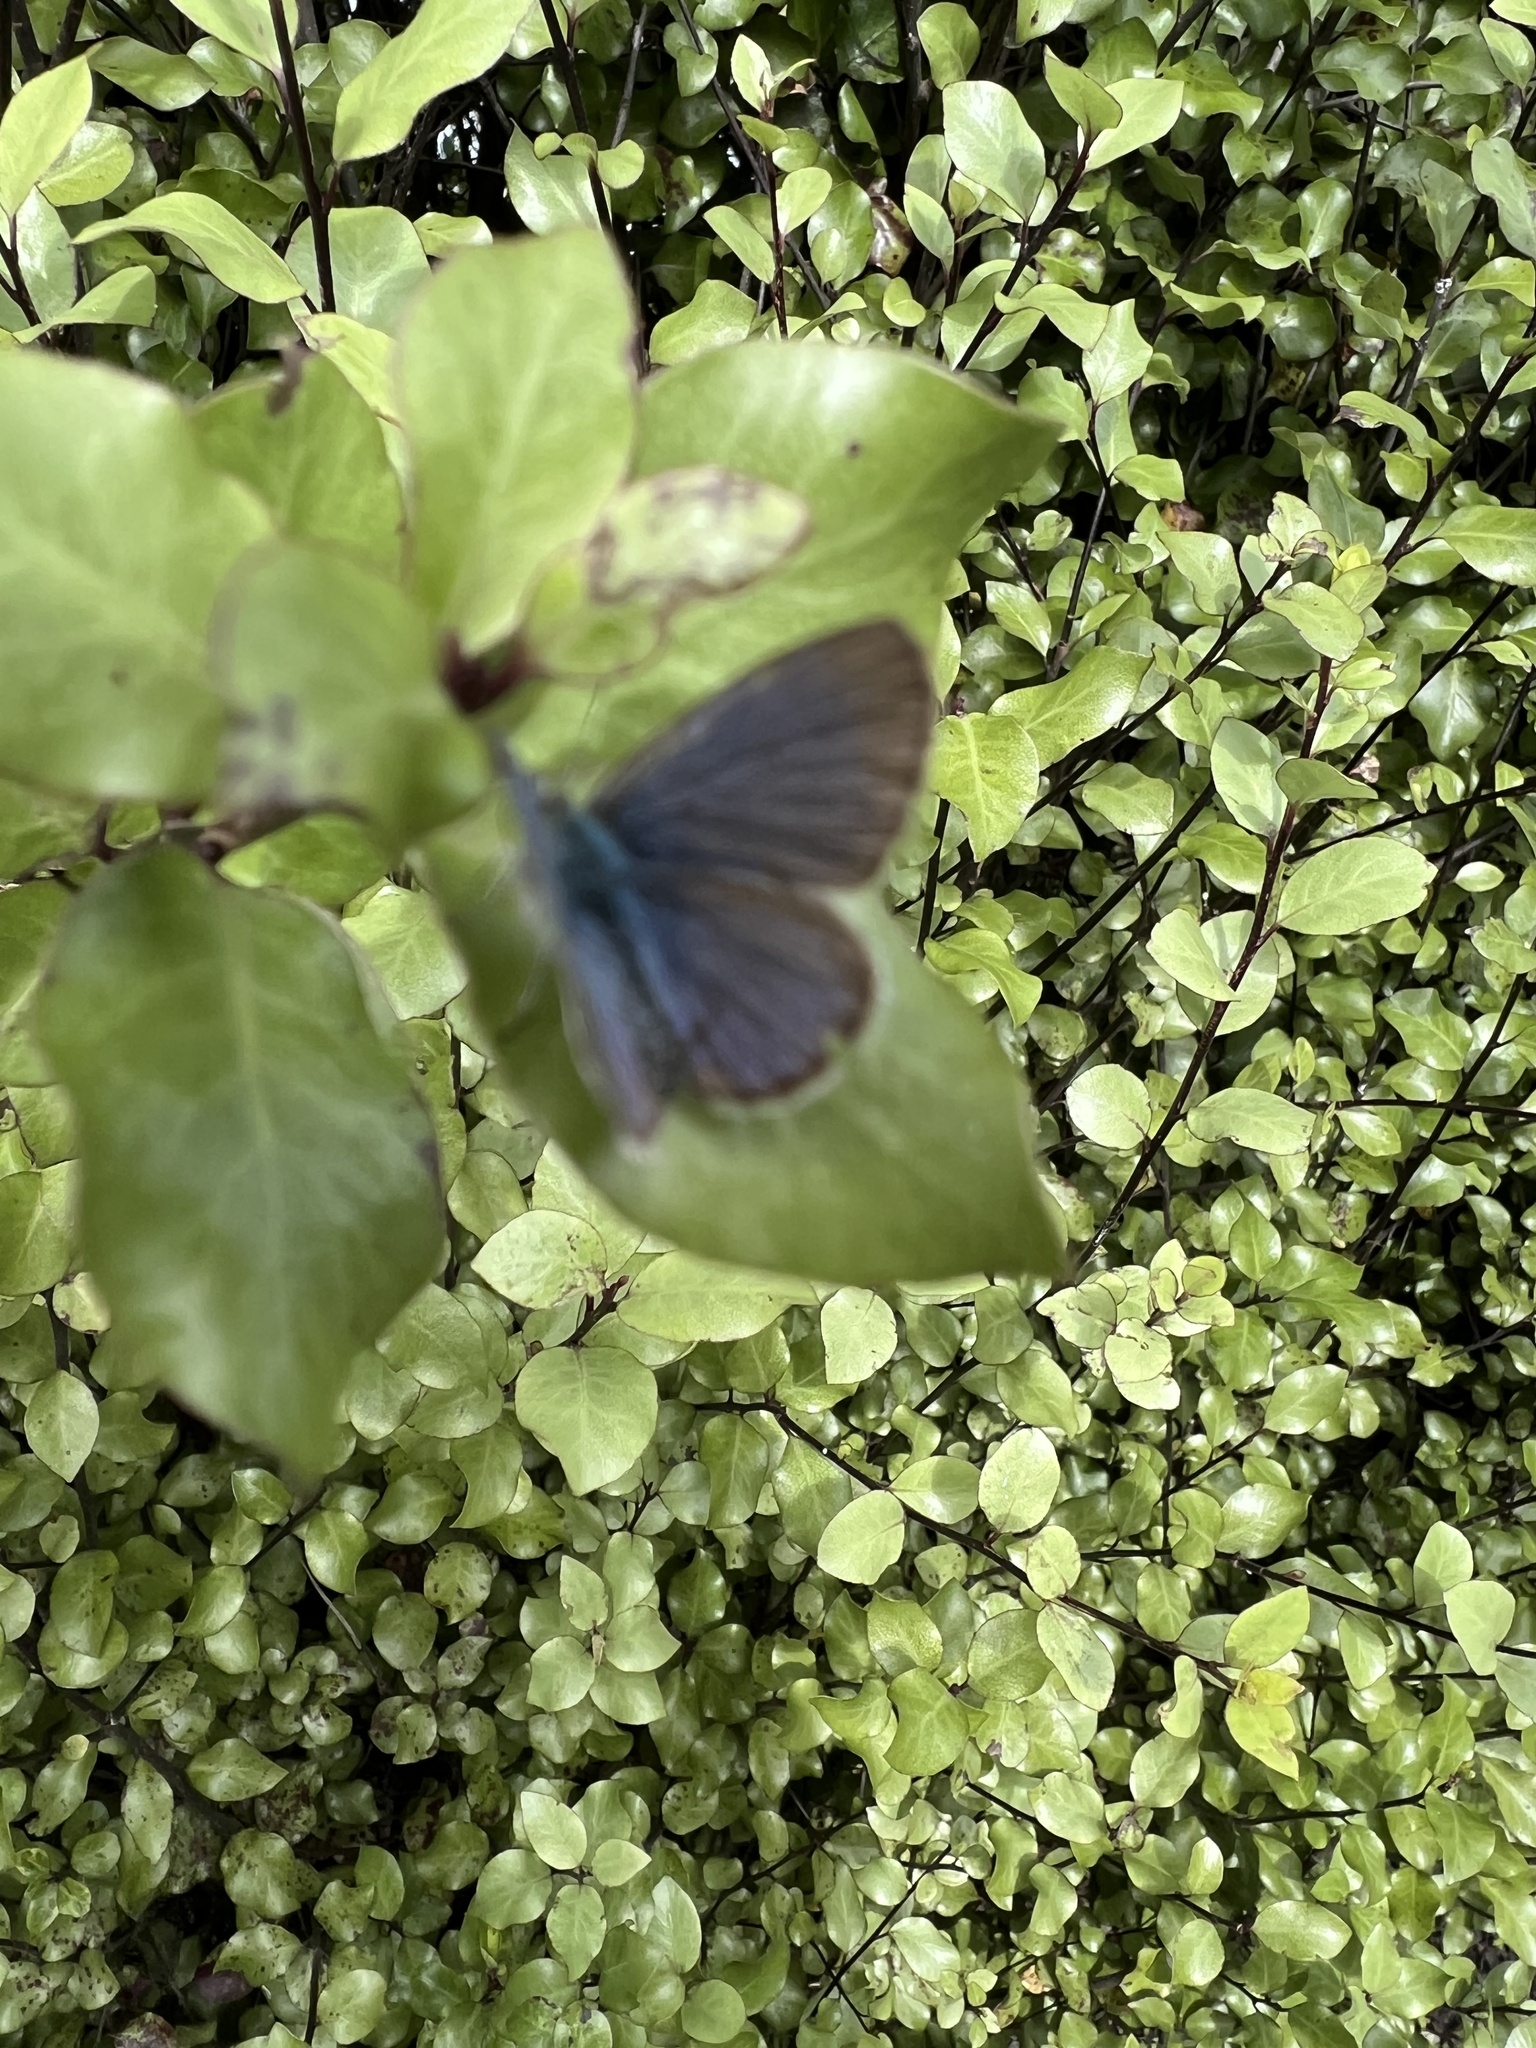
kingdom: Animalia
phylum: Arthropoda
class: Insecta
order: Lepidoptera
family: Lycaenidae
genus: Zizina
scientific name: Zizina labradus
